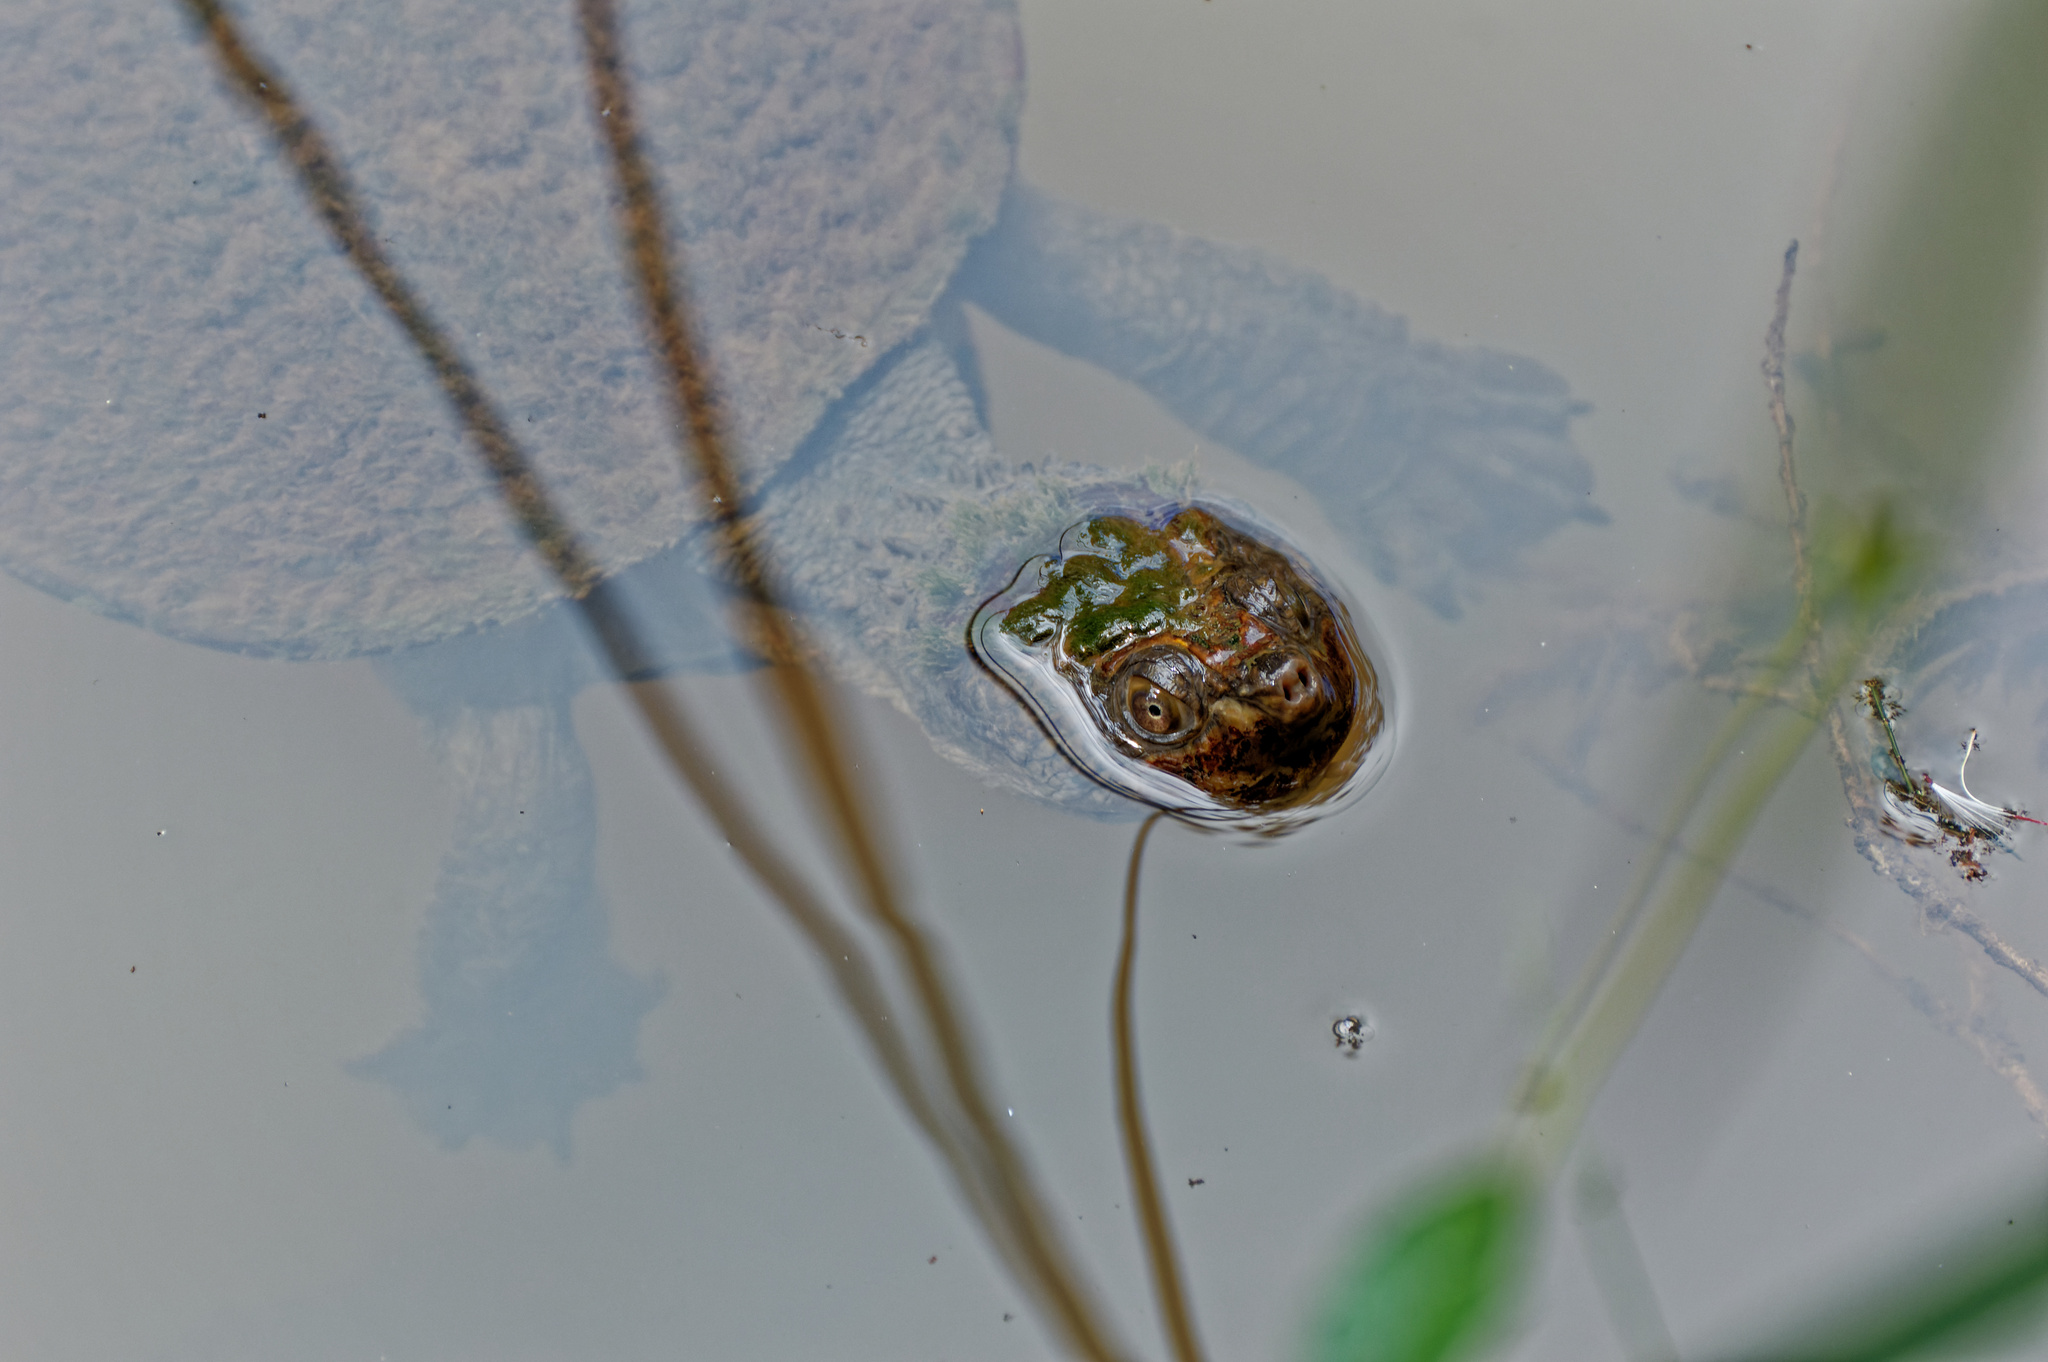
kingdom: Animalia
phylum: Chordata
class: Testudines
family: Chelidae
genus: Myuchelys
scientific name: Myuchelys latisternum
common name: Serrated snapping turtle
